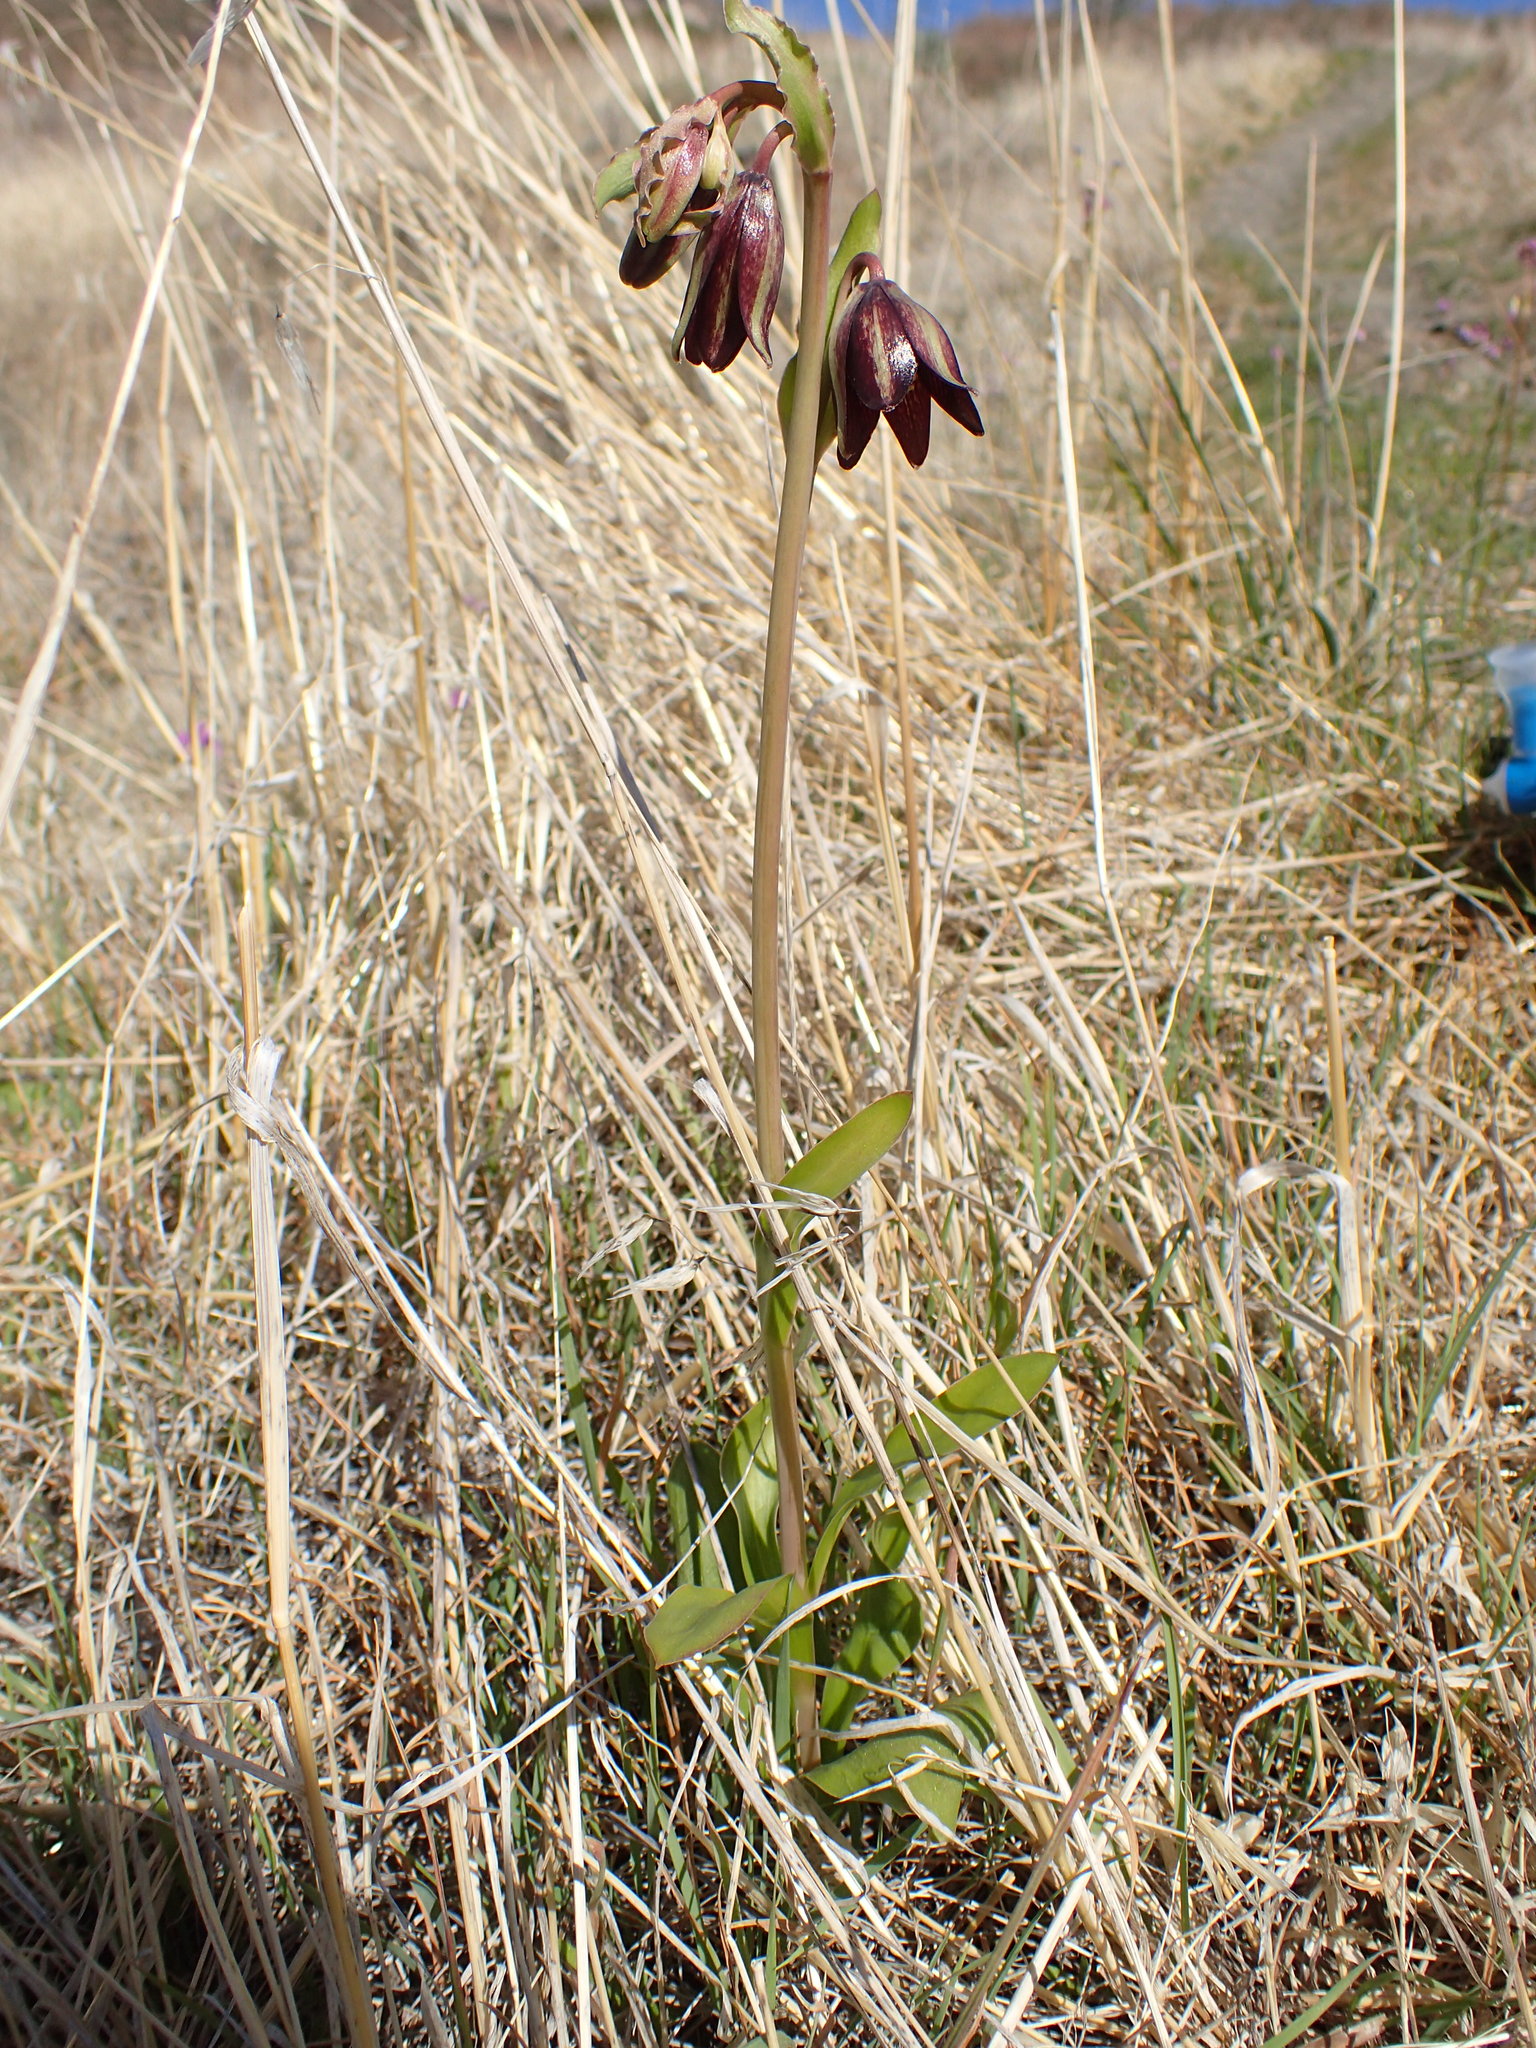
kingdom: Plantae
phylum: Tracheophyta
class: Liliopsida
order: Liliales
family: Liliaceae
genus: Fritillaria
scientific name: Fritillaria biflora
